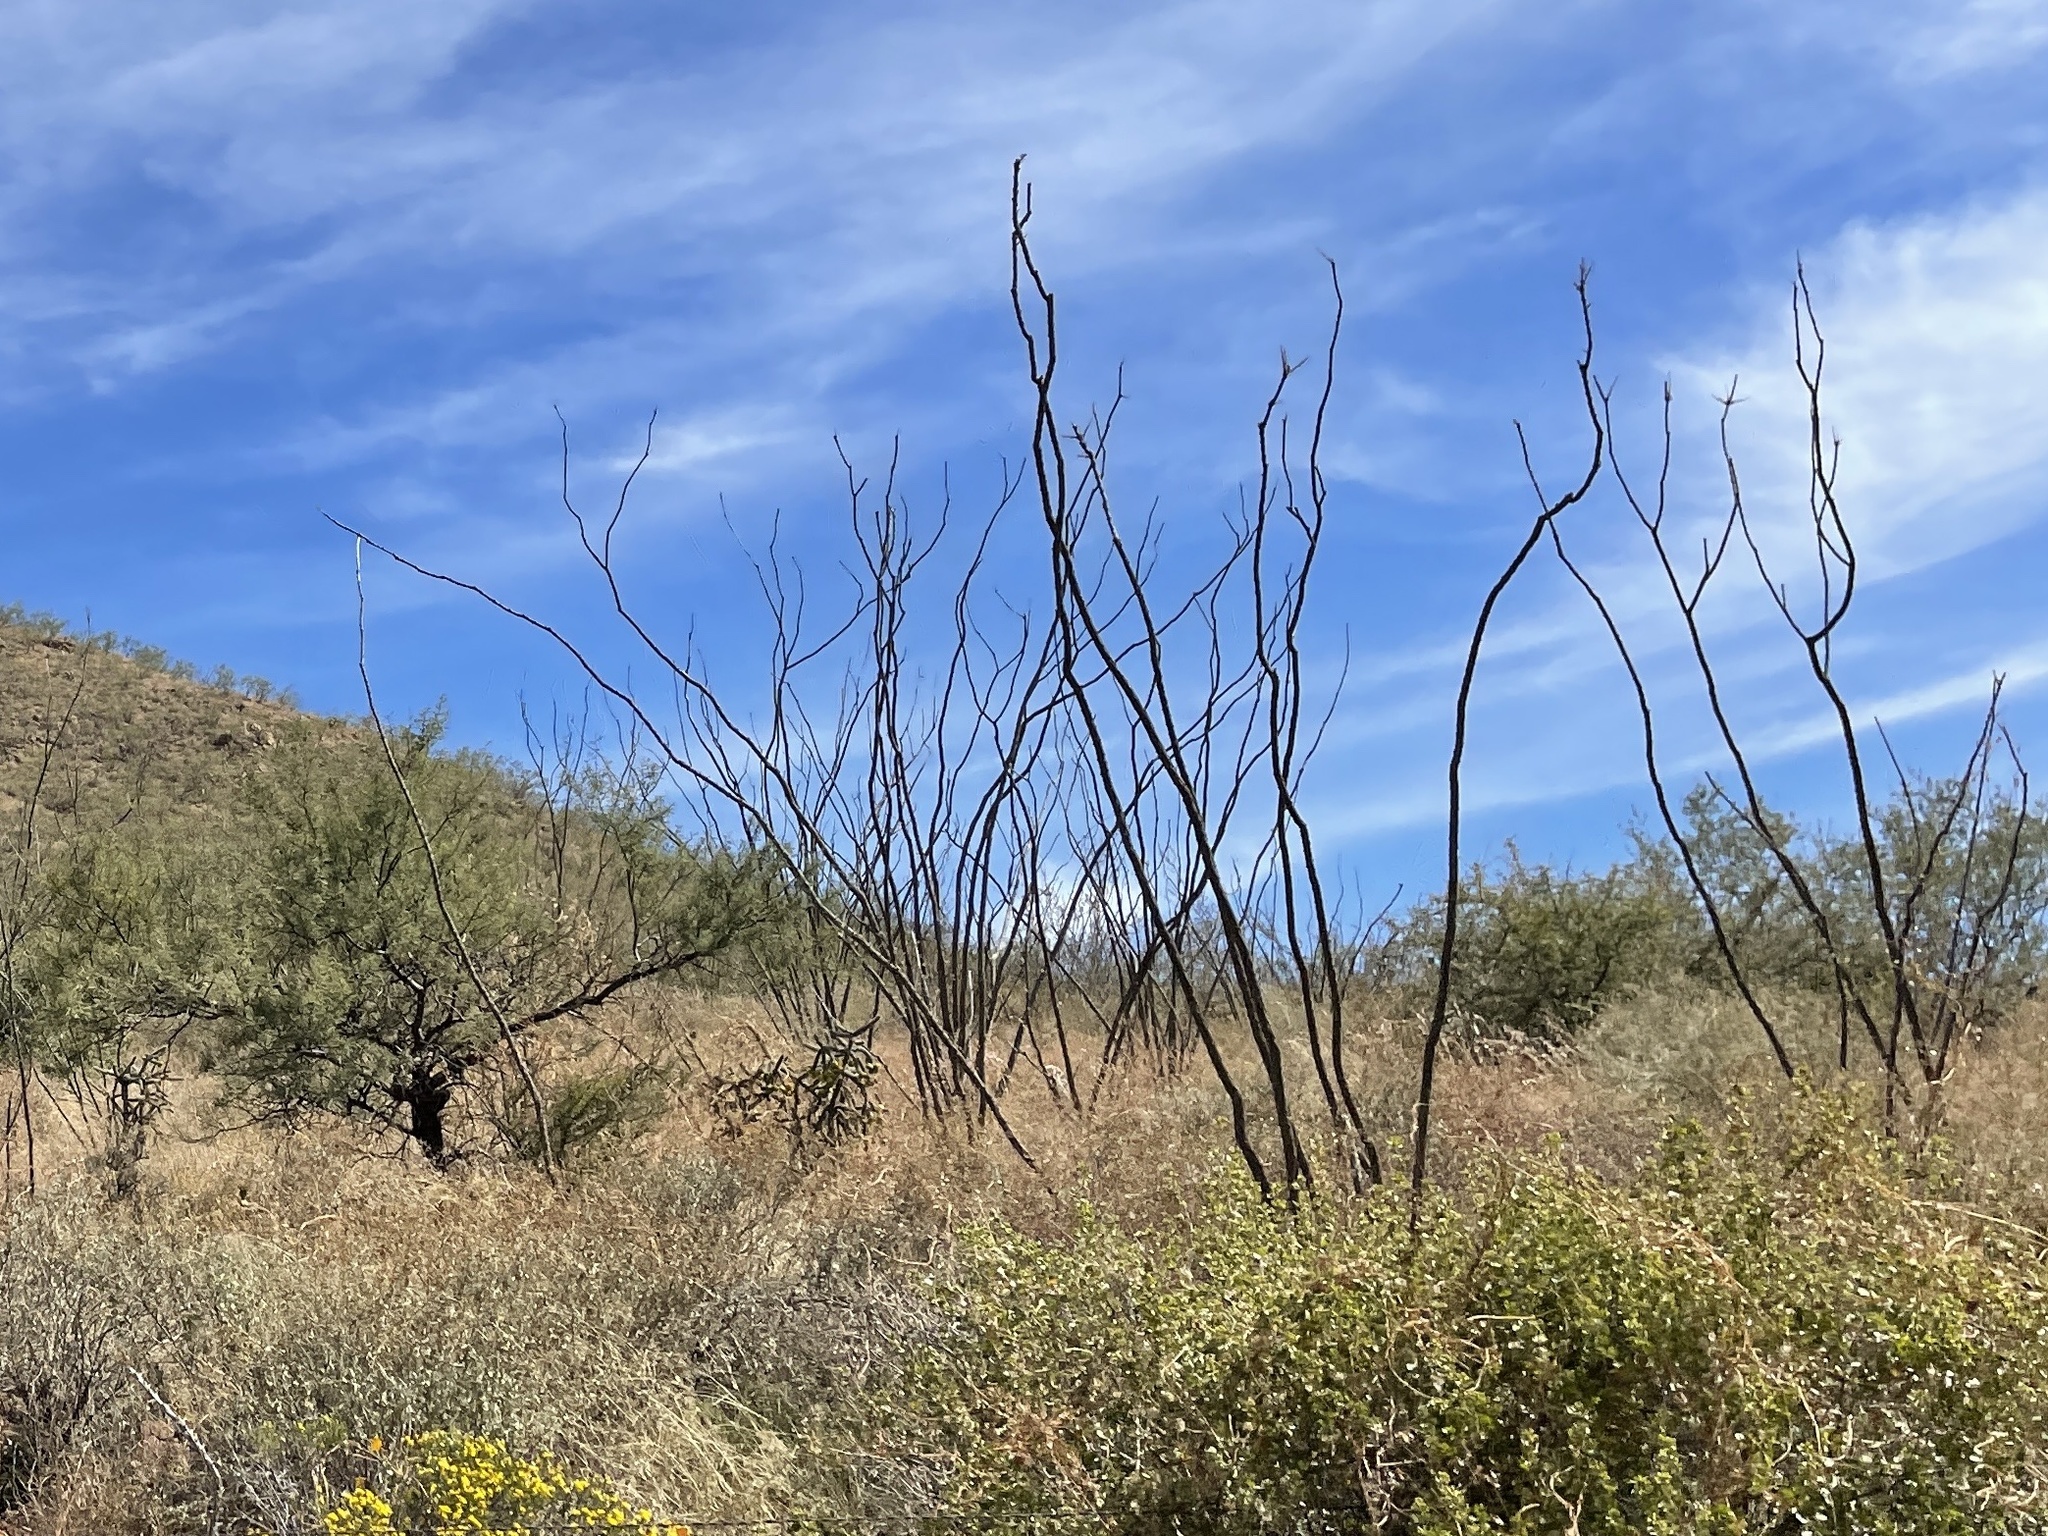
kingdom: Plantae
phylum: Tracheophyta
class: Magnoliopsida
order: Ericales
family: Fouquieriaceae
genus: Fouquieria
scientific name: Fouquieria splendens
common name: Vine-cactus
